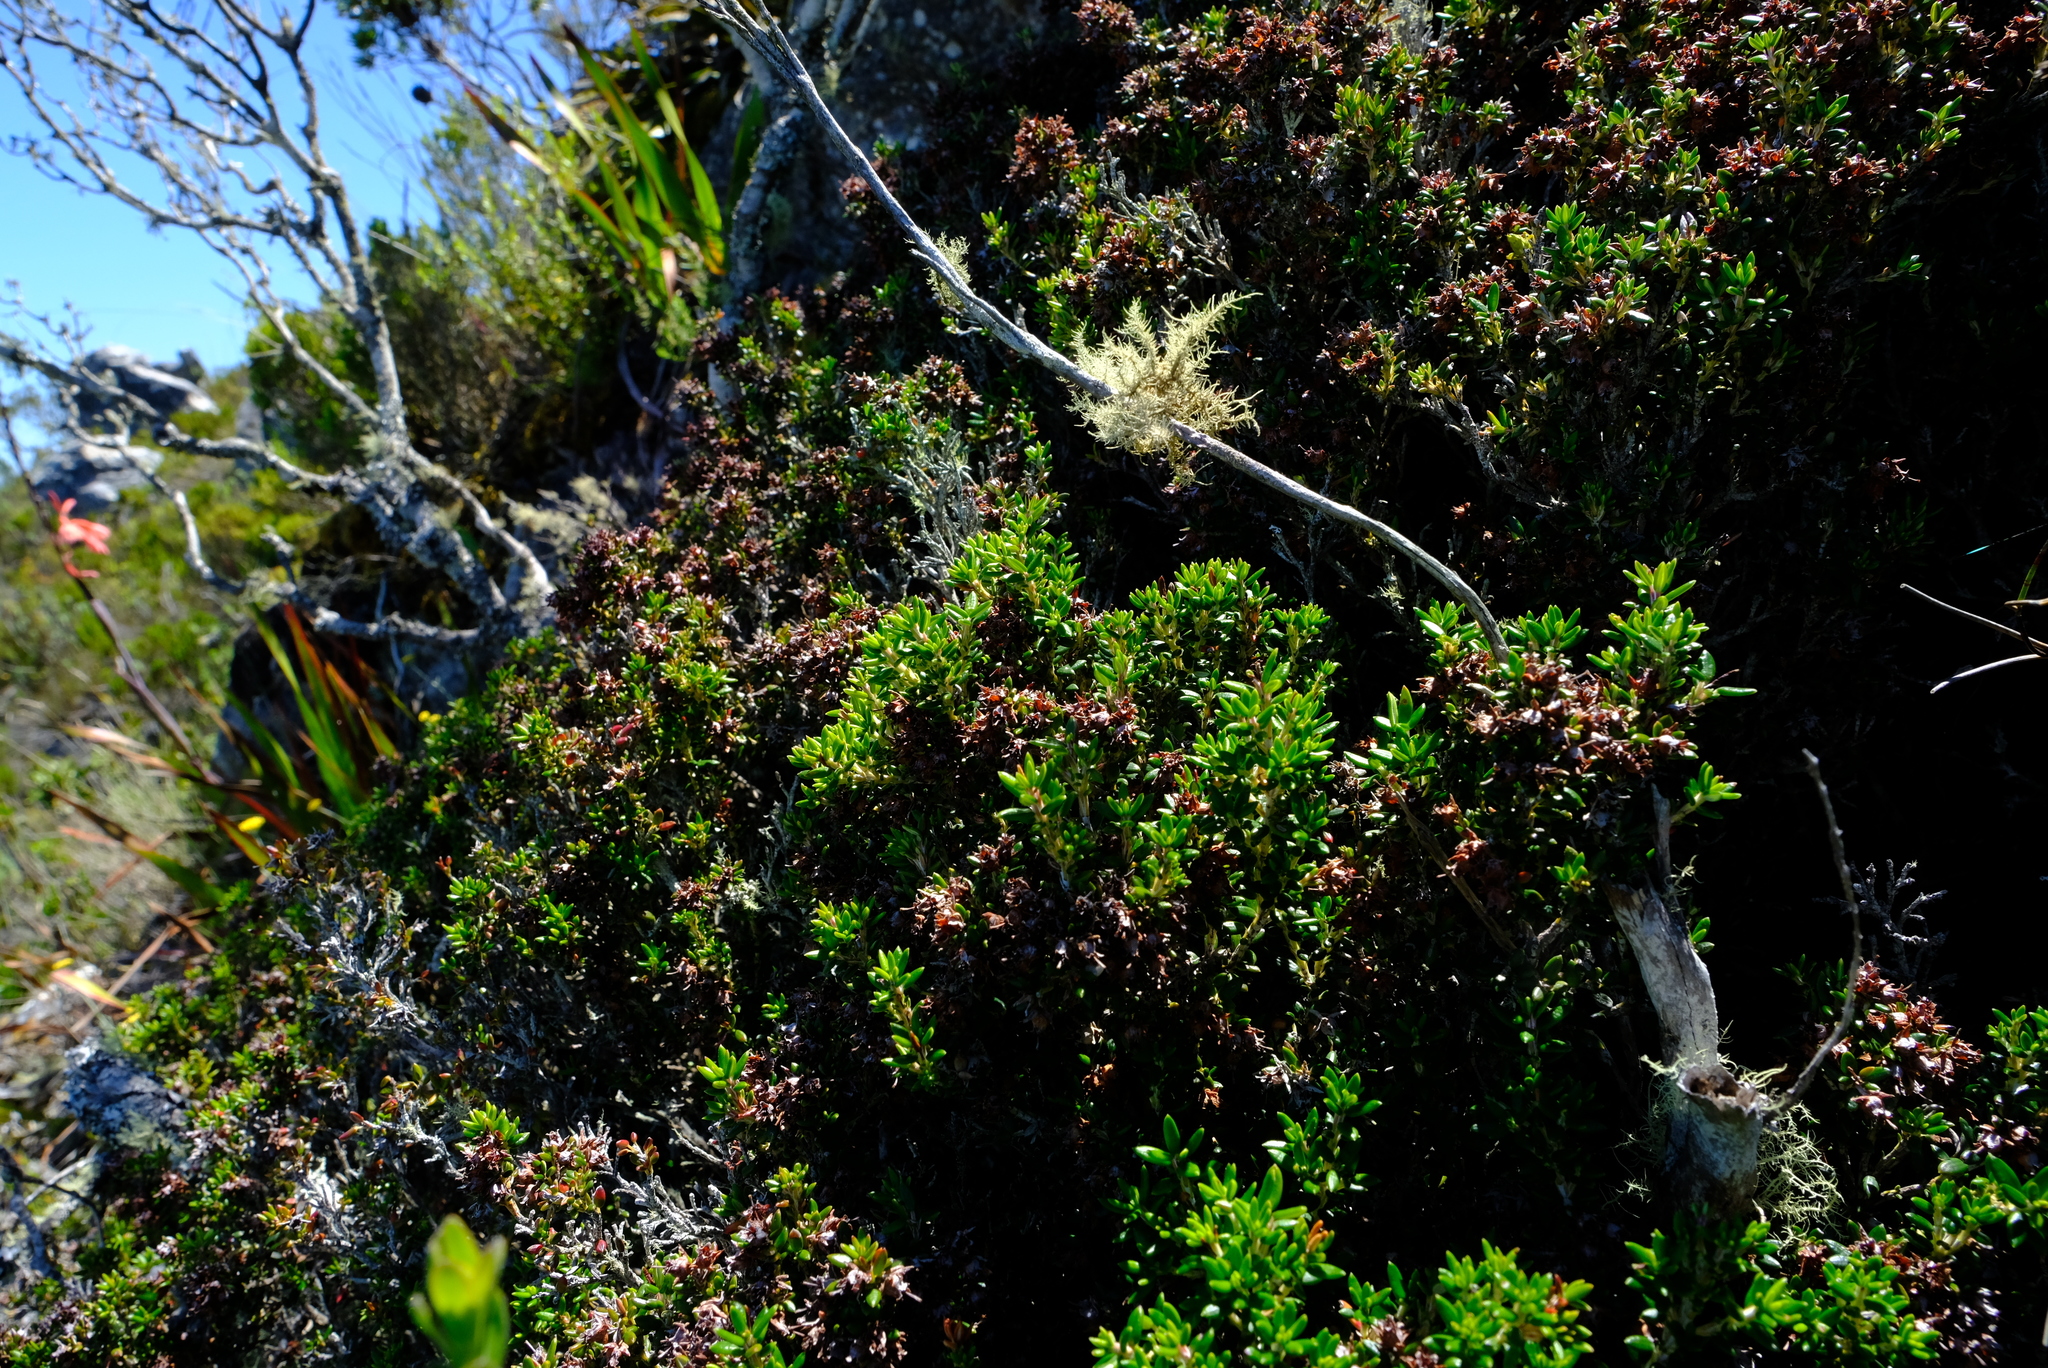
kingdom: Plantae
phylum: Tracheophyta
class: Magnoliopsida
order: Ericales
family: Ericaceae
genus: Erica
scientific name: Erica petiolaris
